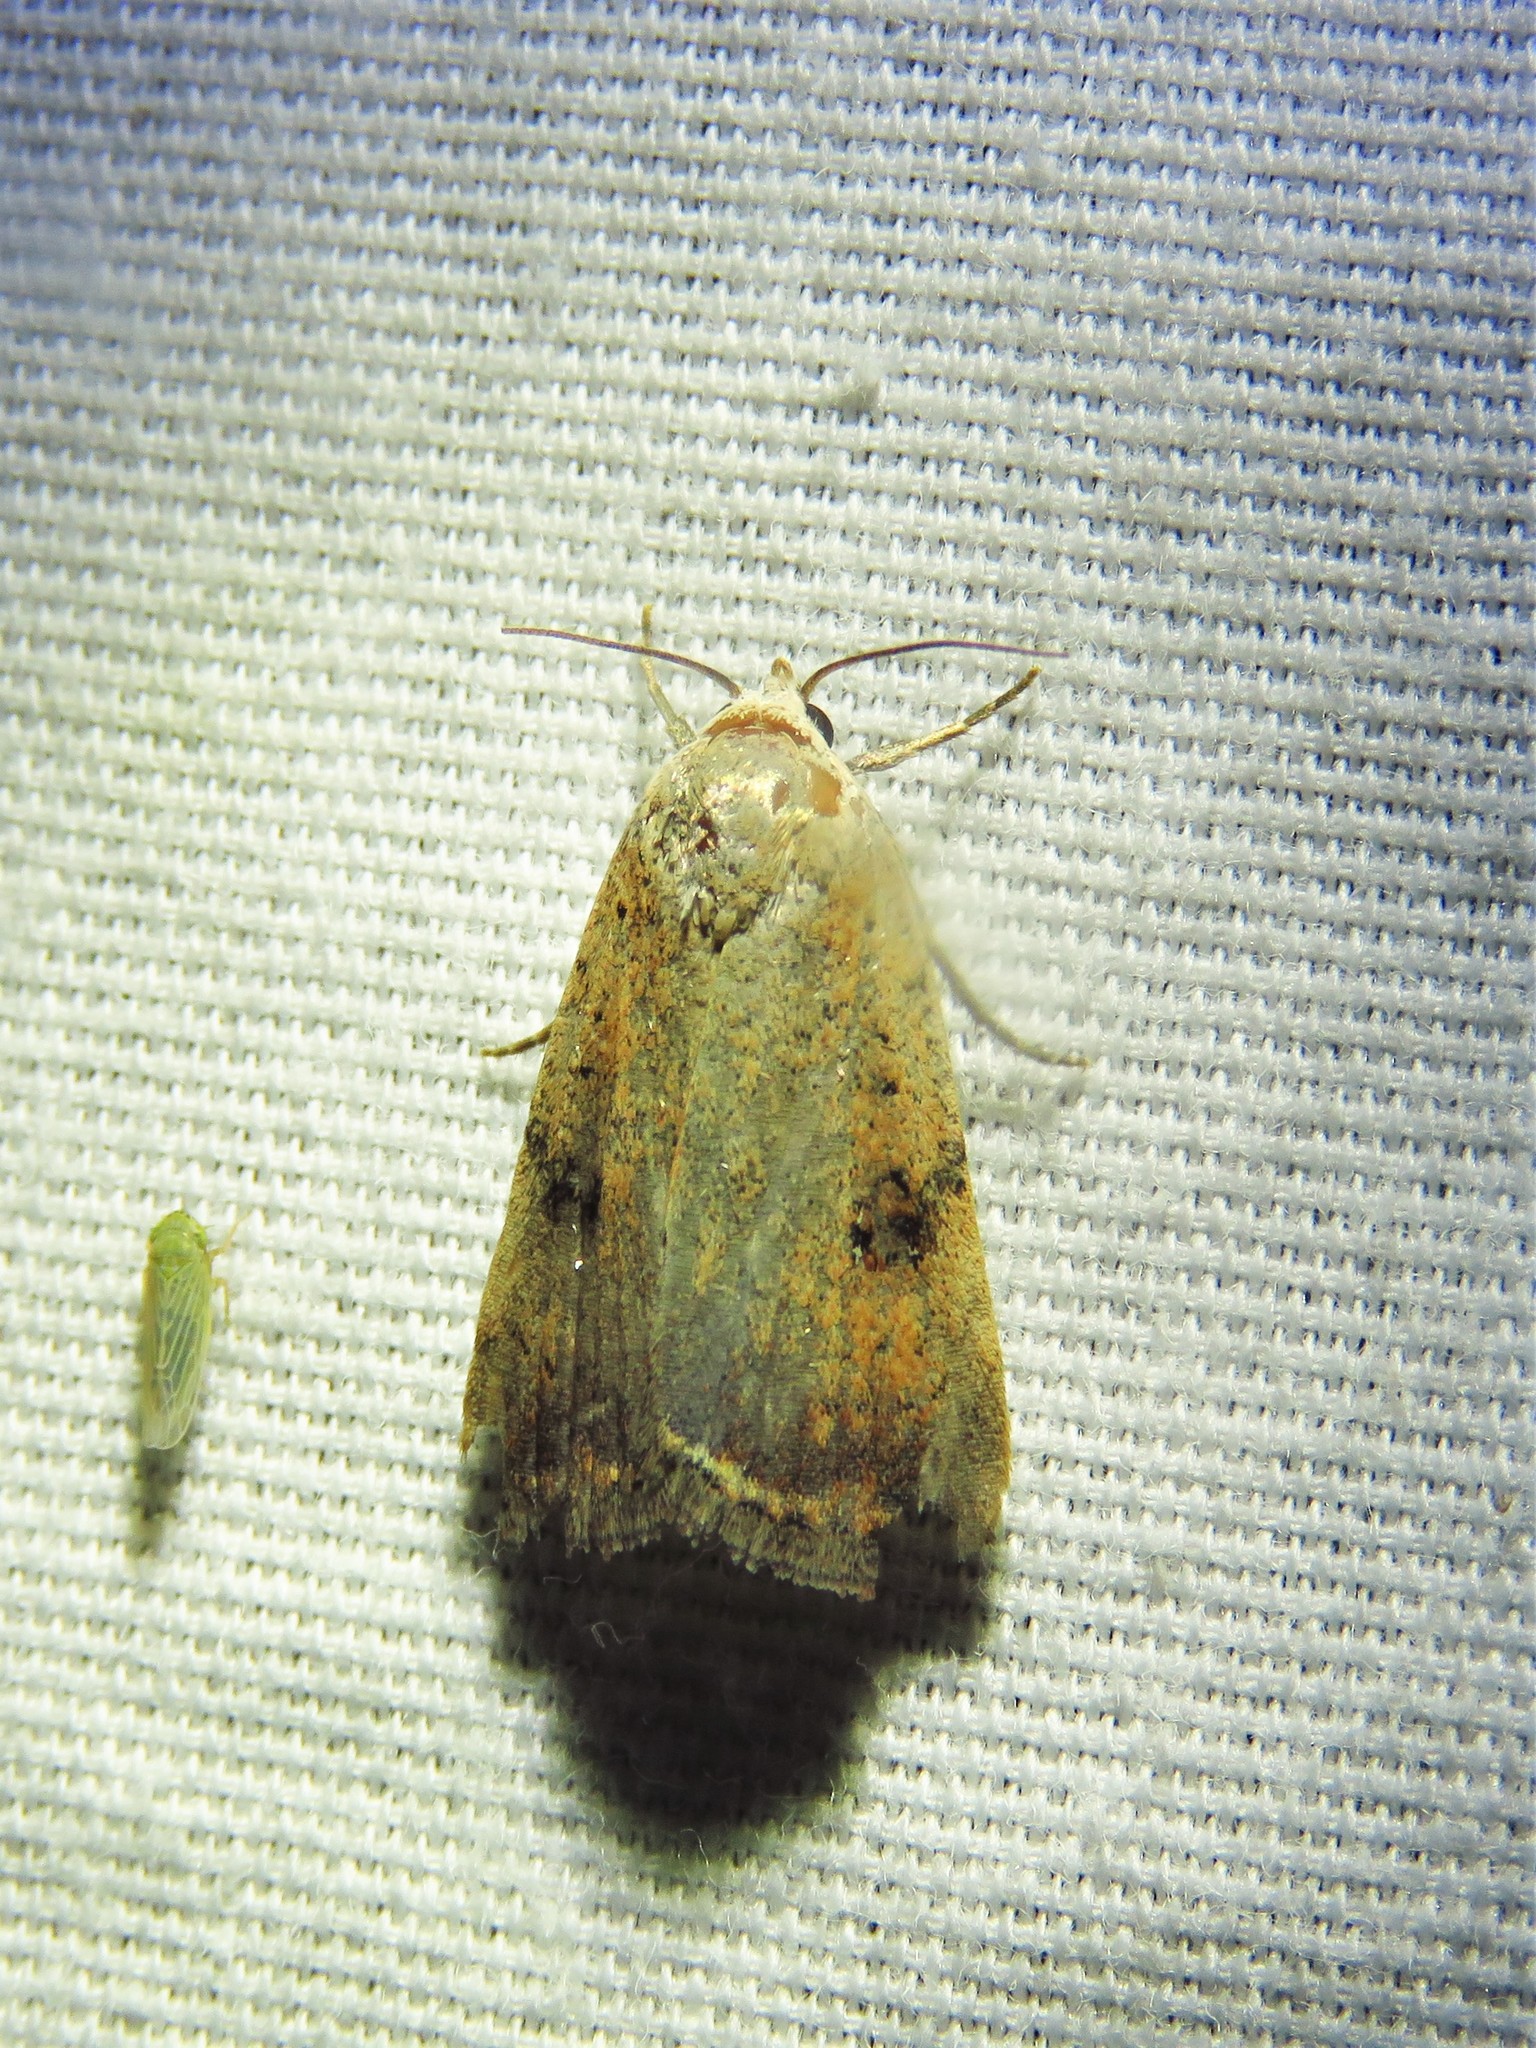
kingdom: Animalia
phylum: Arthropoda
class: Insecta
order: Lepidoptera
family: Noctuidae
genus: Micrathetis
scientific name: Micrathetis triplex
